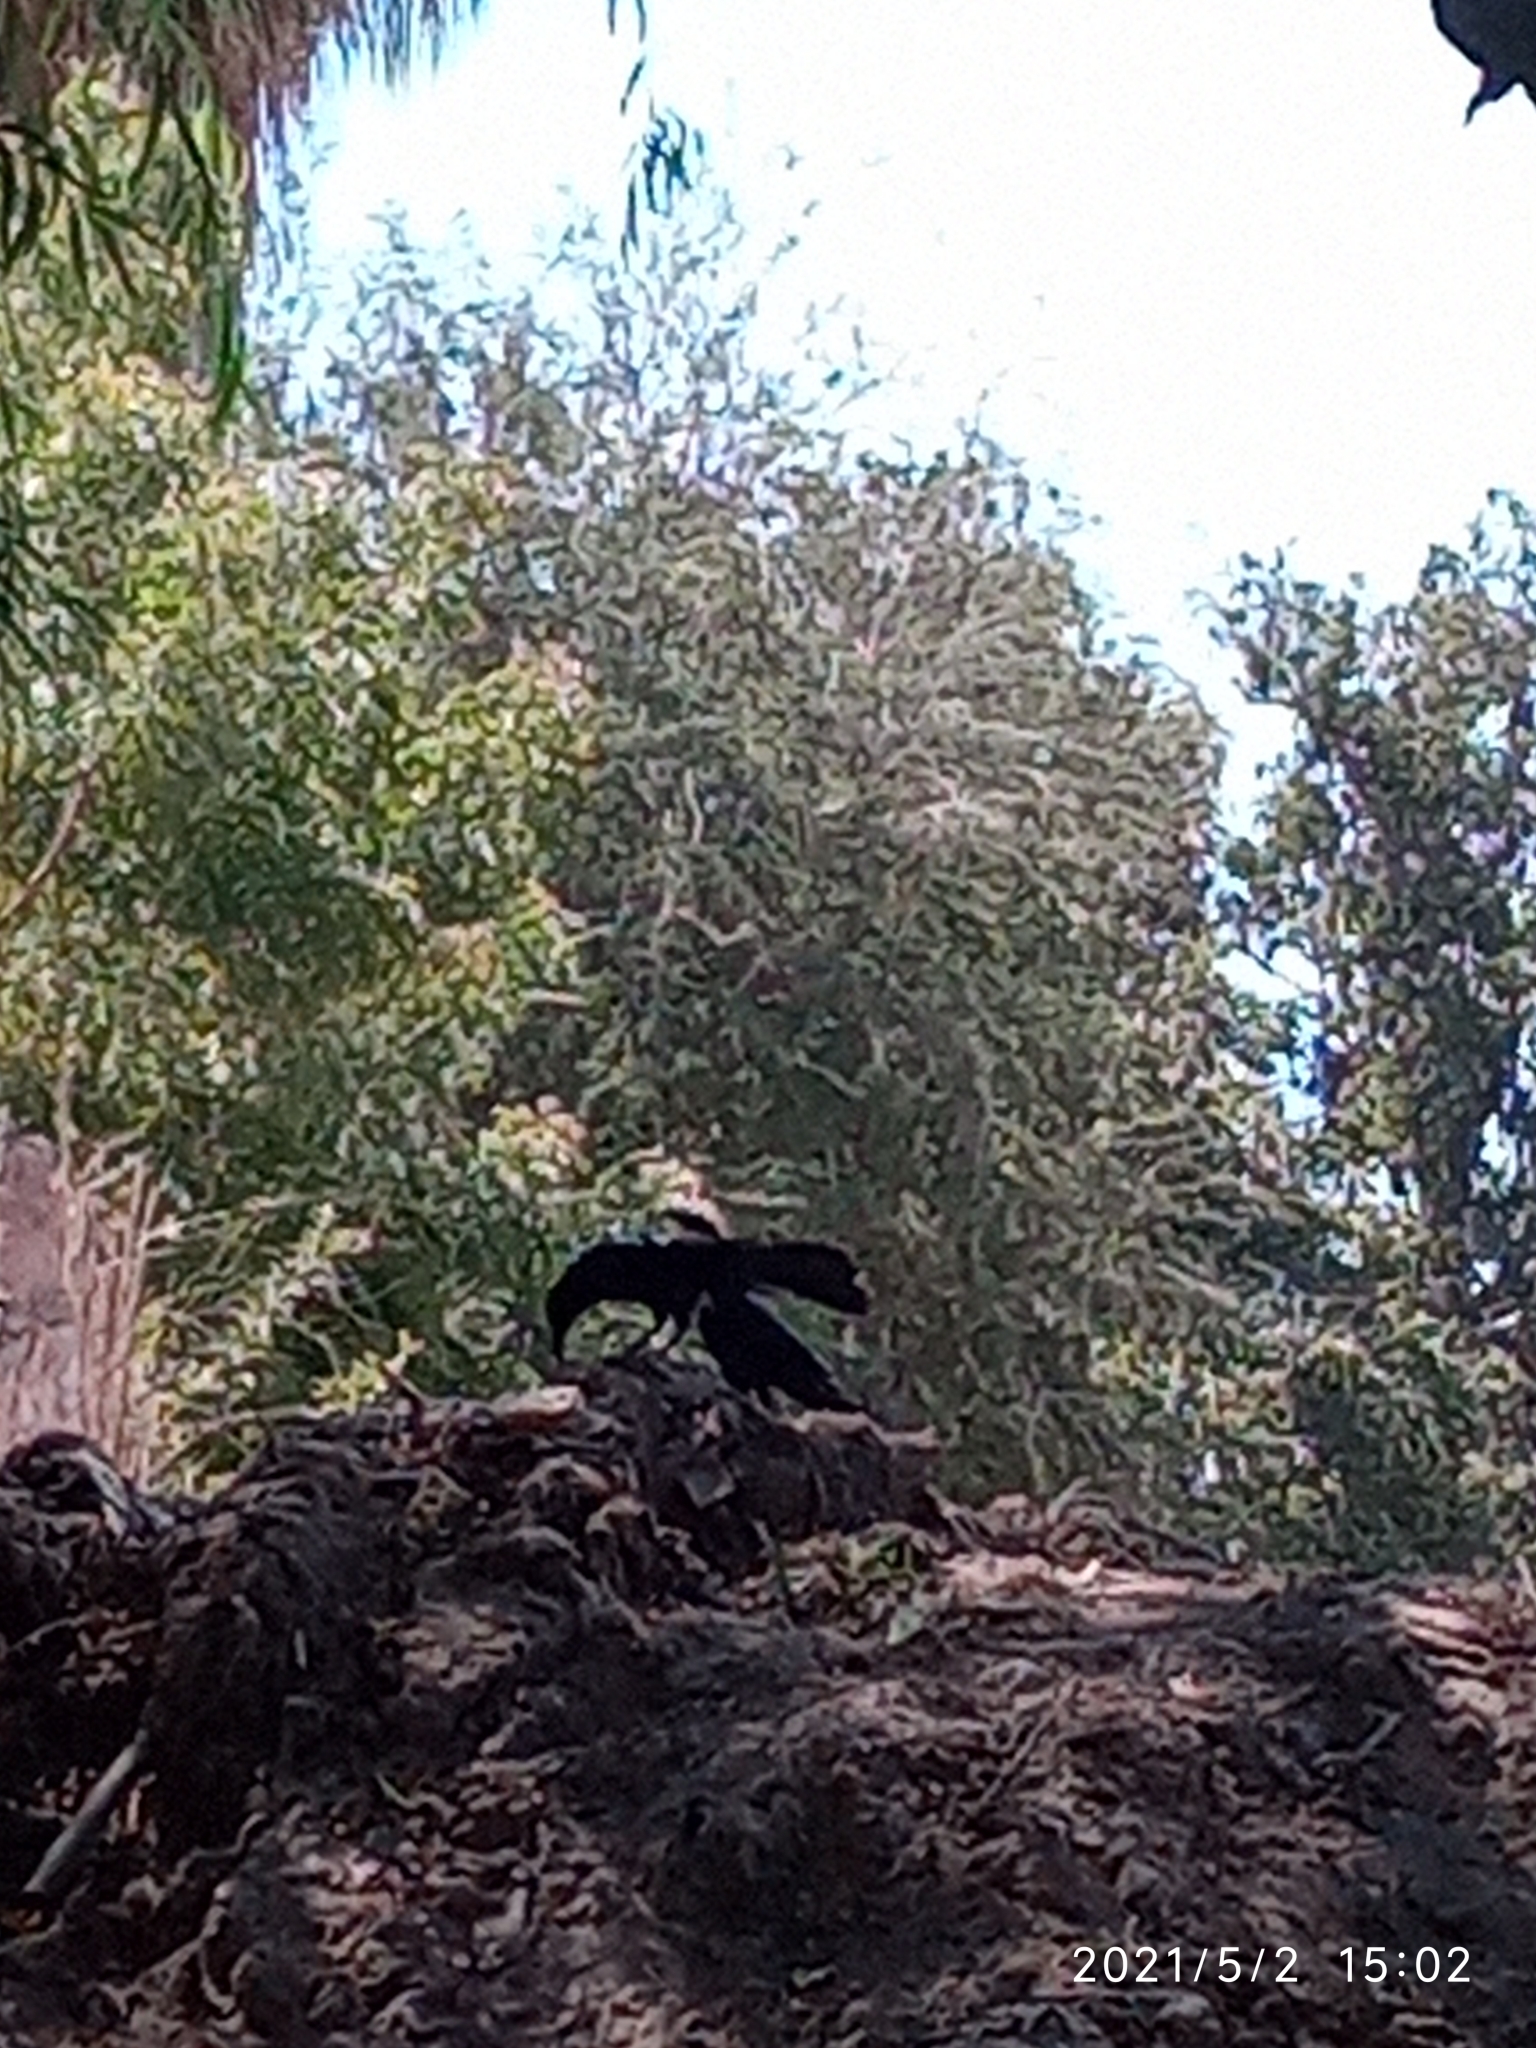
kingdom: Animalia
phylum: Chordata
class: Aves
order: Passeriformes
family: Icteridae
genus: Quiscalus
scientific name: Quiscalus mexicanus
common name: Great-tailed grackle
